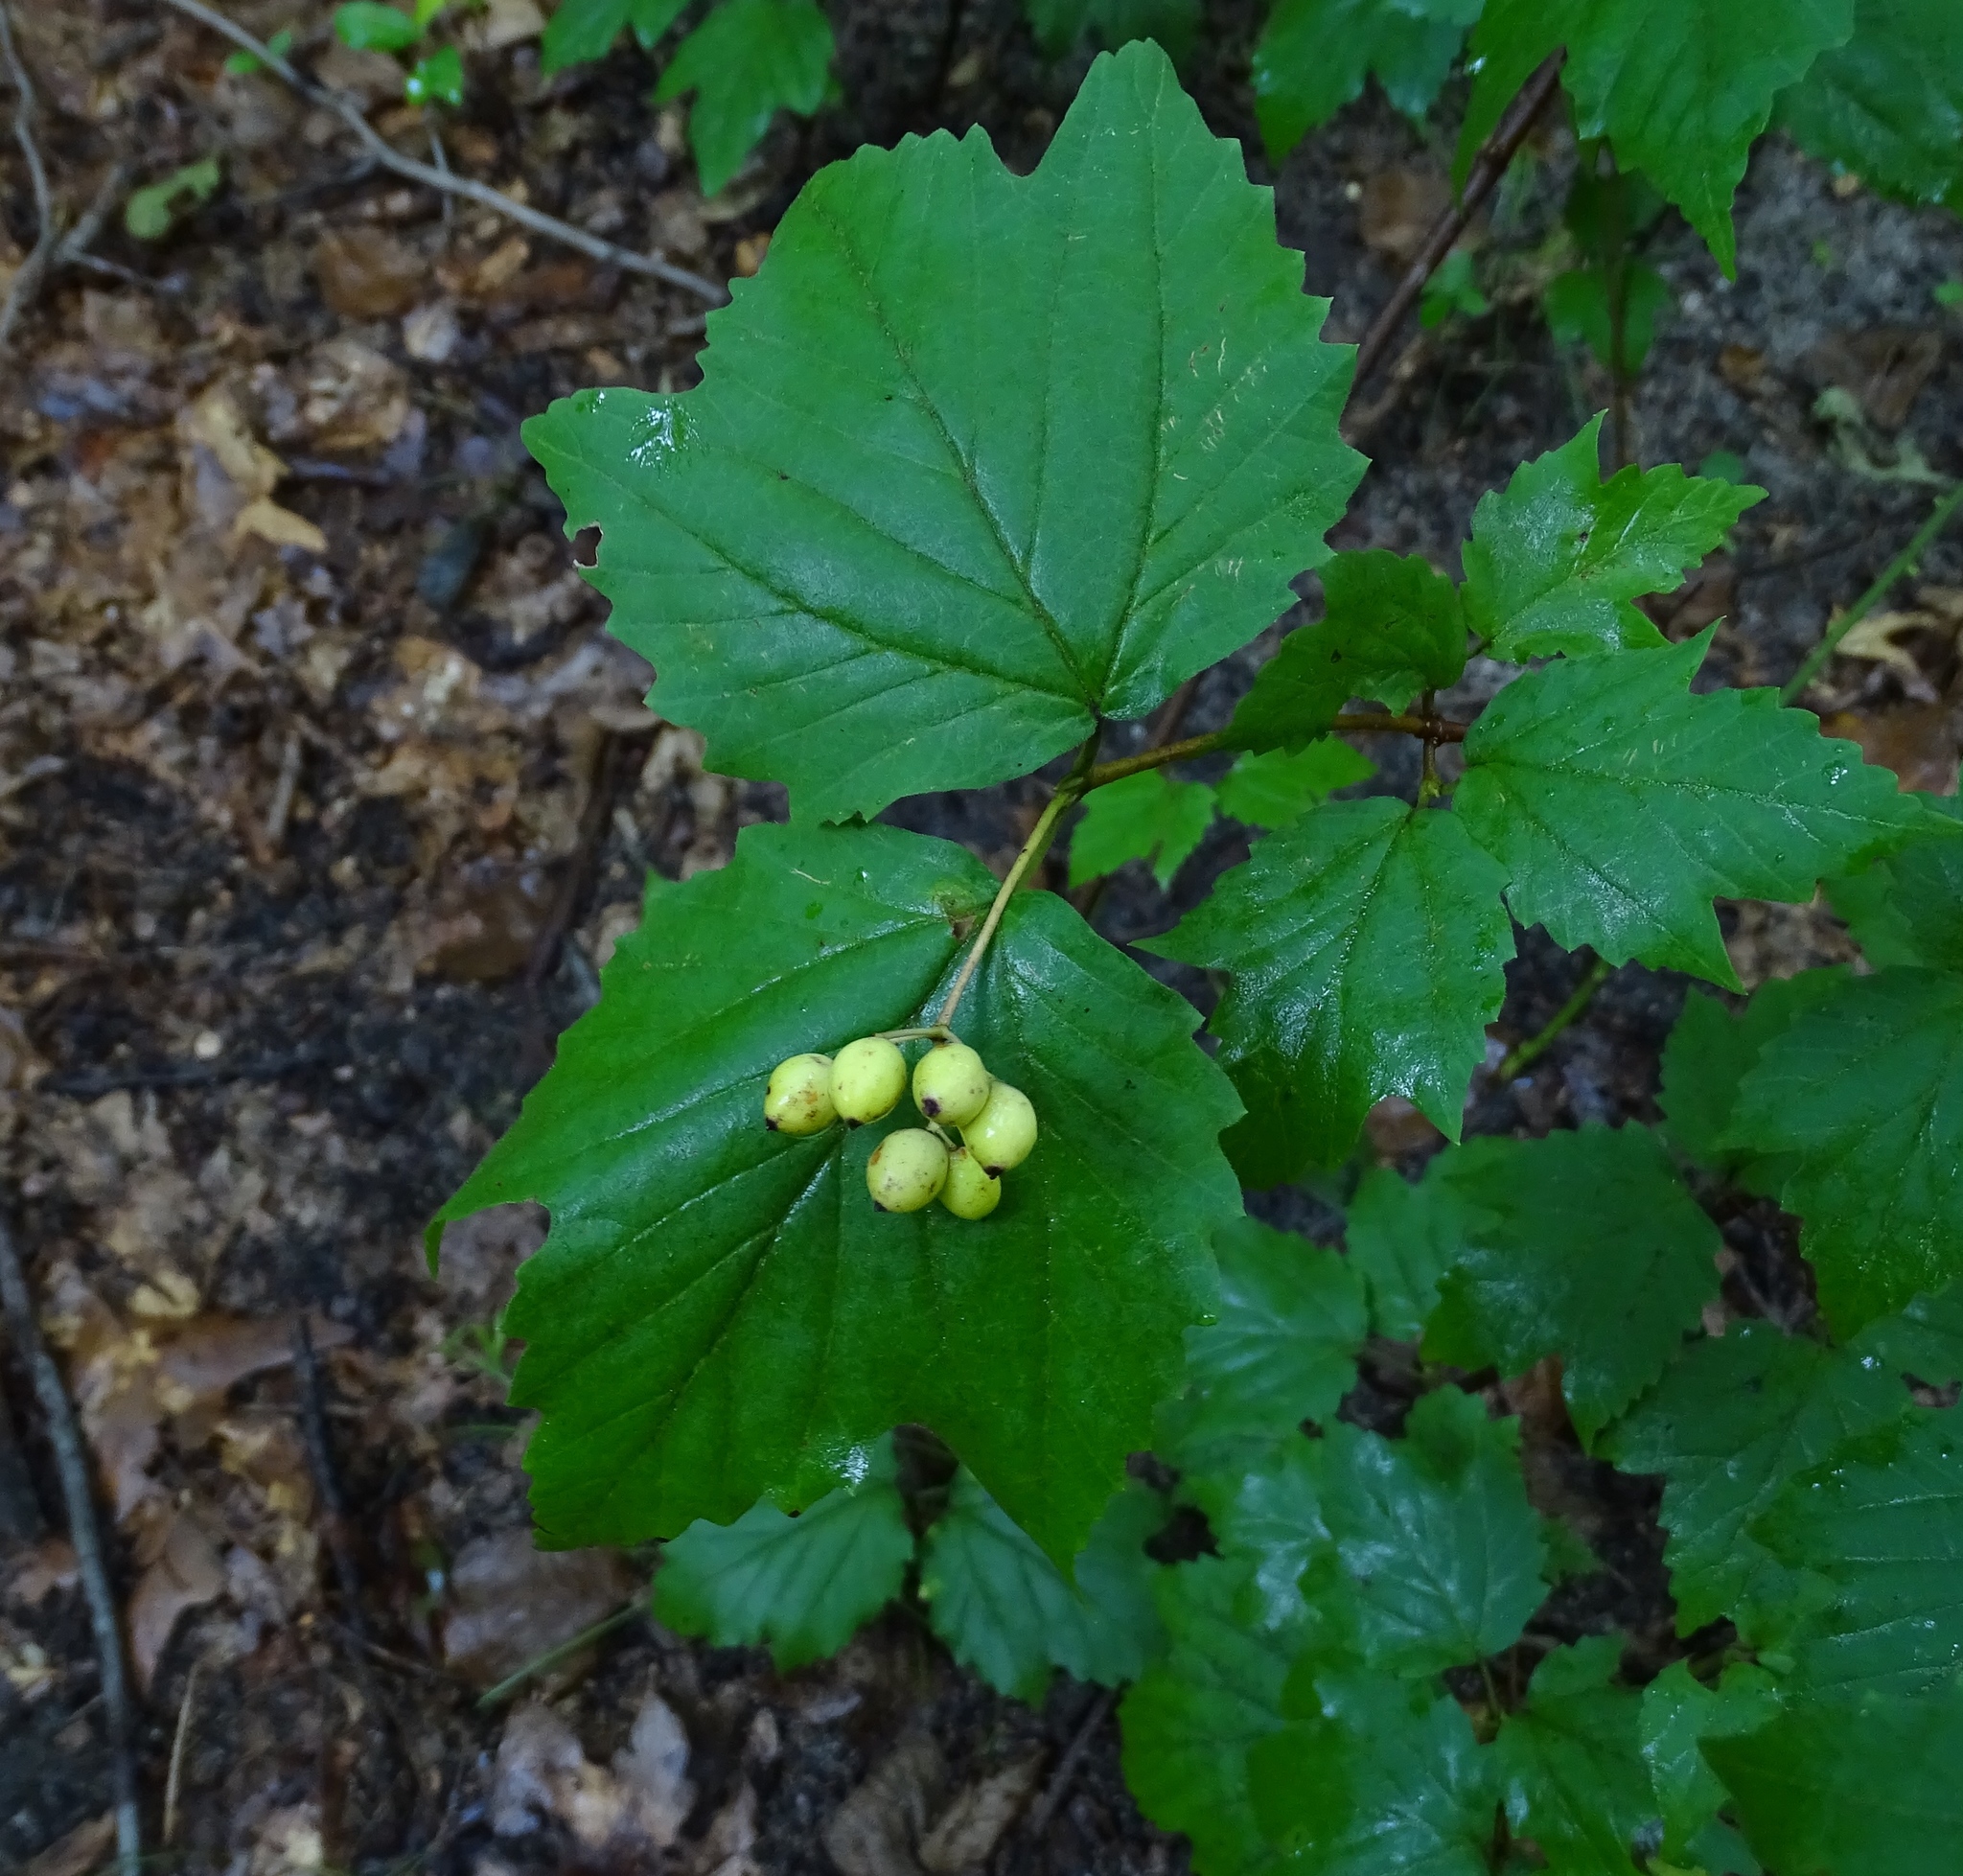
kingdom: Plantae
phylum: Tracheophyta
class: Magnoliopsida
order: Dipsacales
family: Viburnaceae
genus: Viburnum
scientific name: Viburnum acerifolium
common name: Dockmackie
